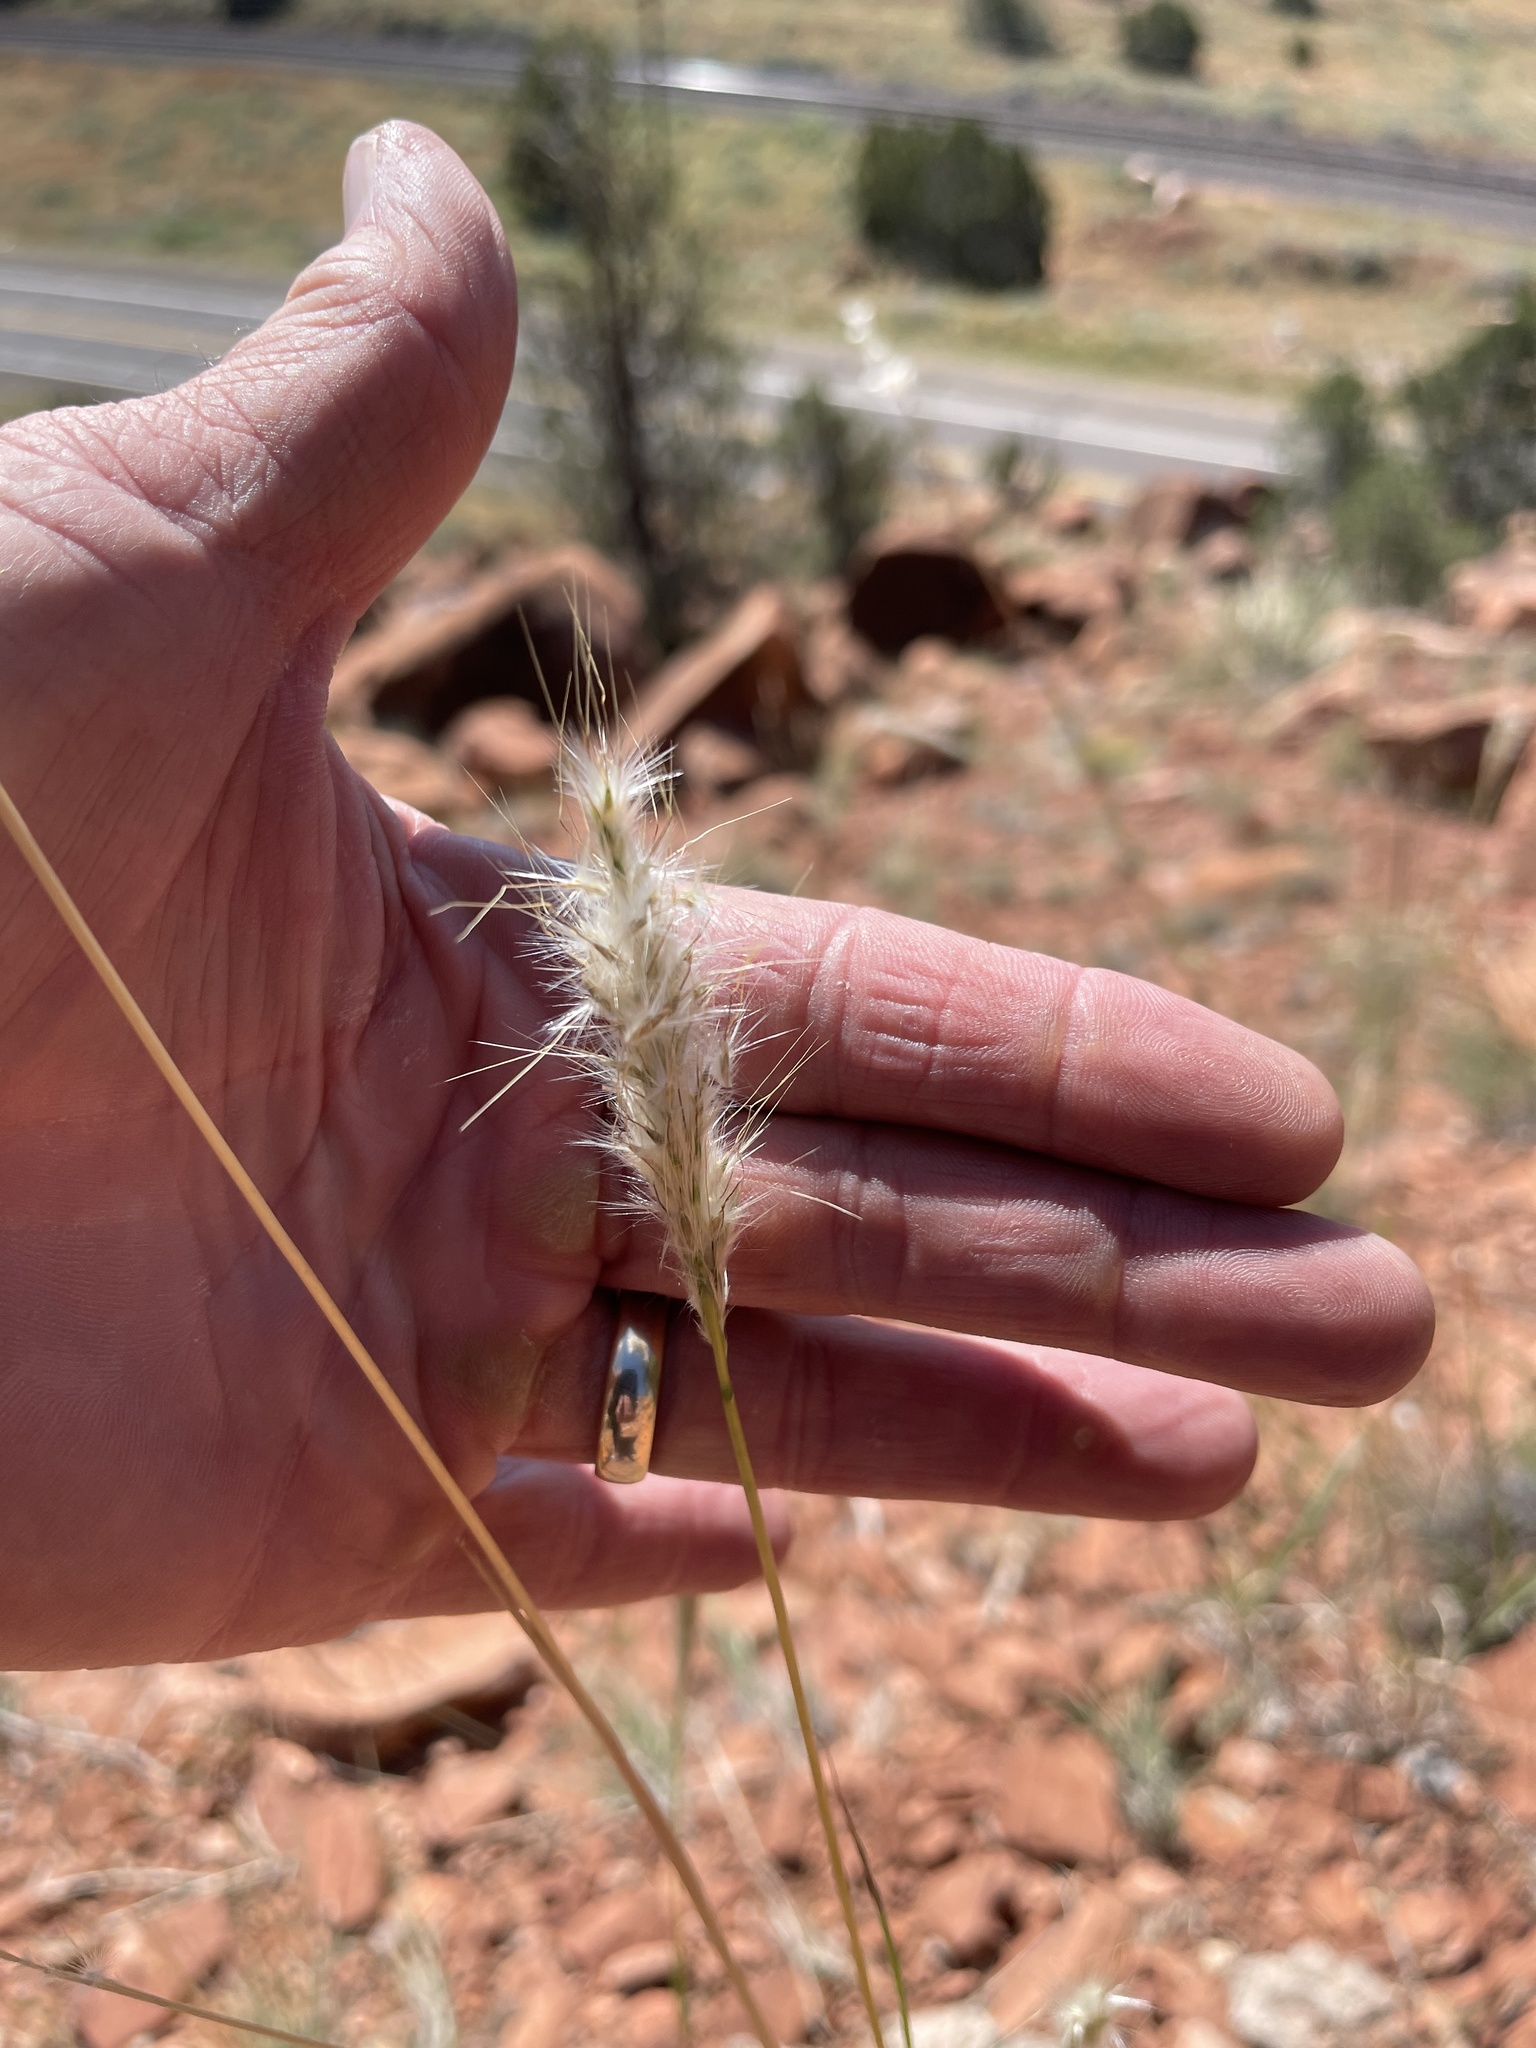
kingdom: Plantae
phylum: Tracheophyta
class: Liliopsida
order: Poales
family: Poaceae
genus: Bothriochloa
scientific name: Bothriochloa barbinodis
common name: Cane bluestem
